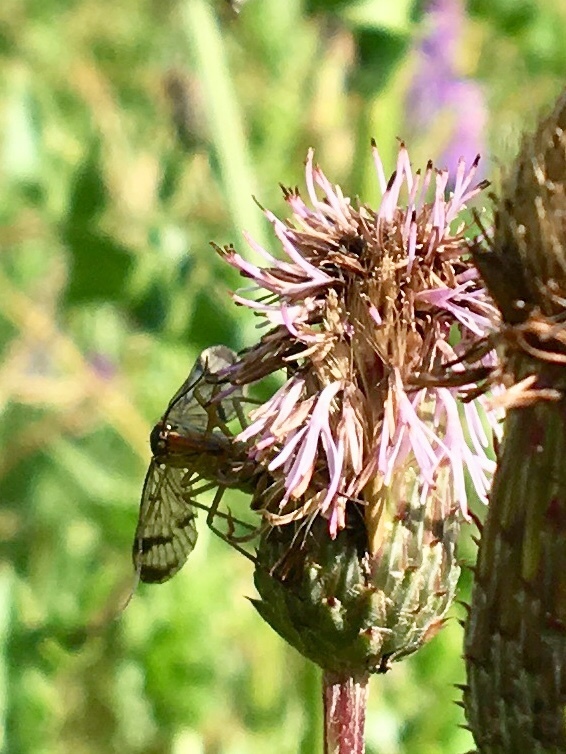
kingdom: Animalia
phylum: Arthropoda
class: Insecta
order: Mecoptera
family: Panorpidae
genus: Panorpa
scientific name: Panorpa communis
